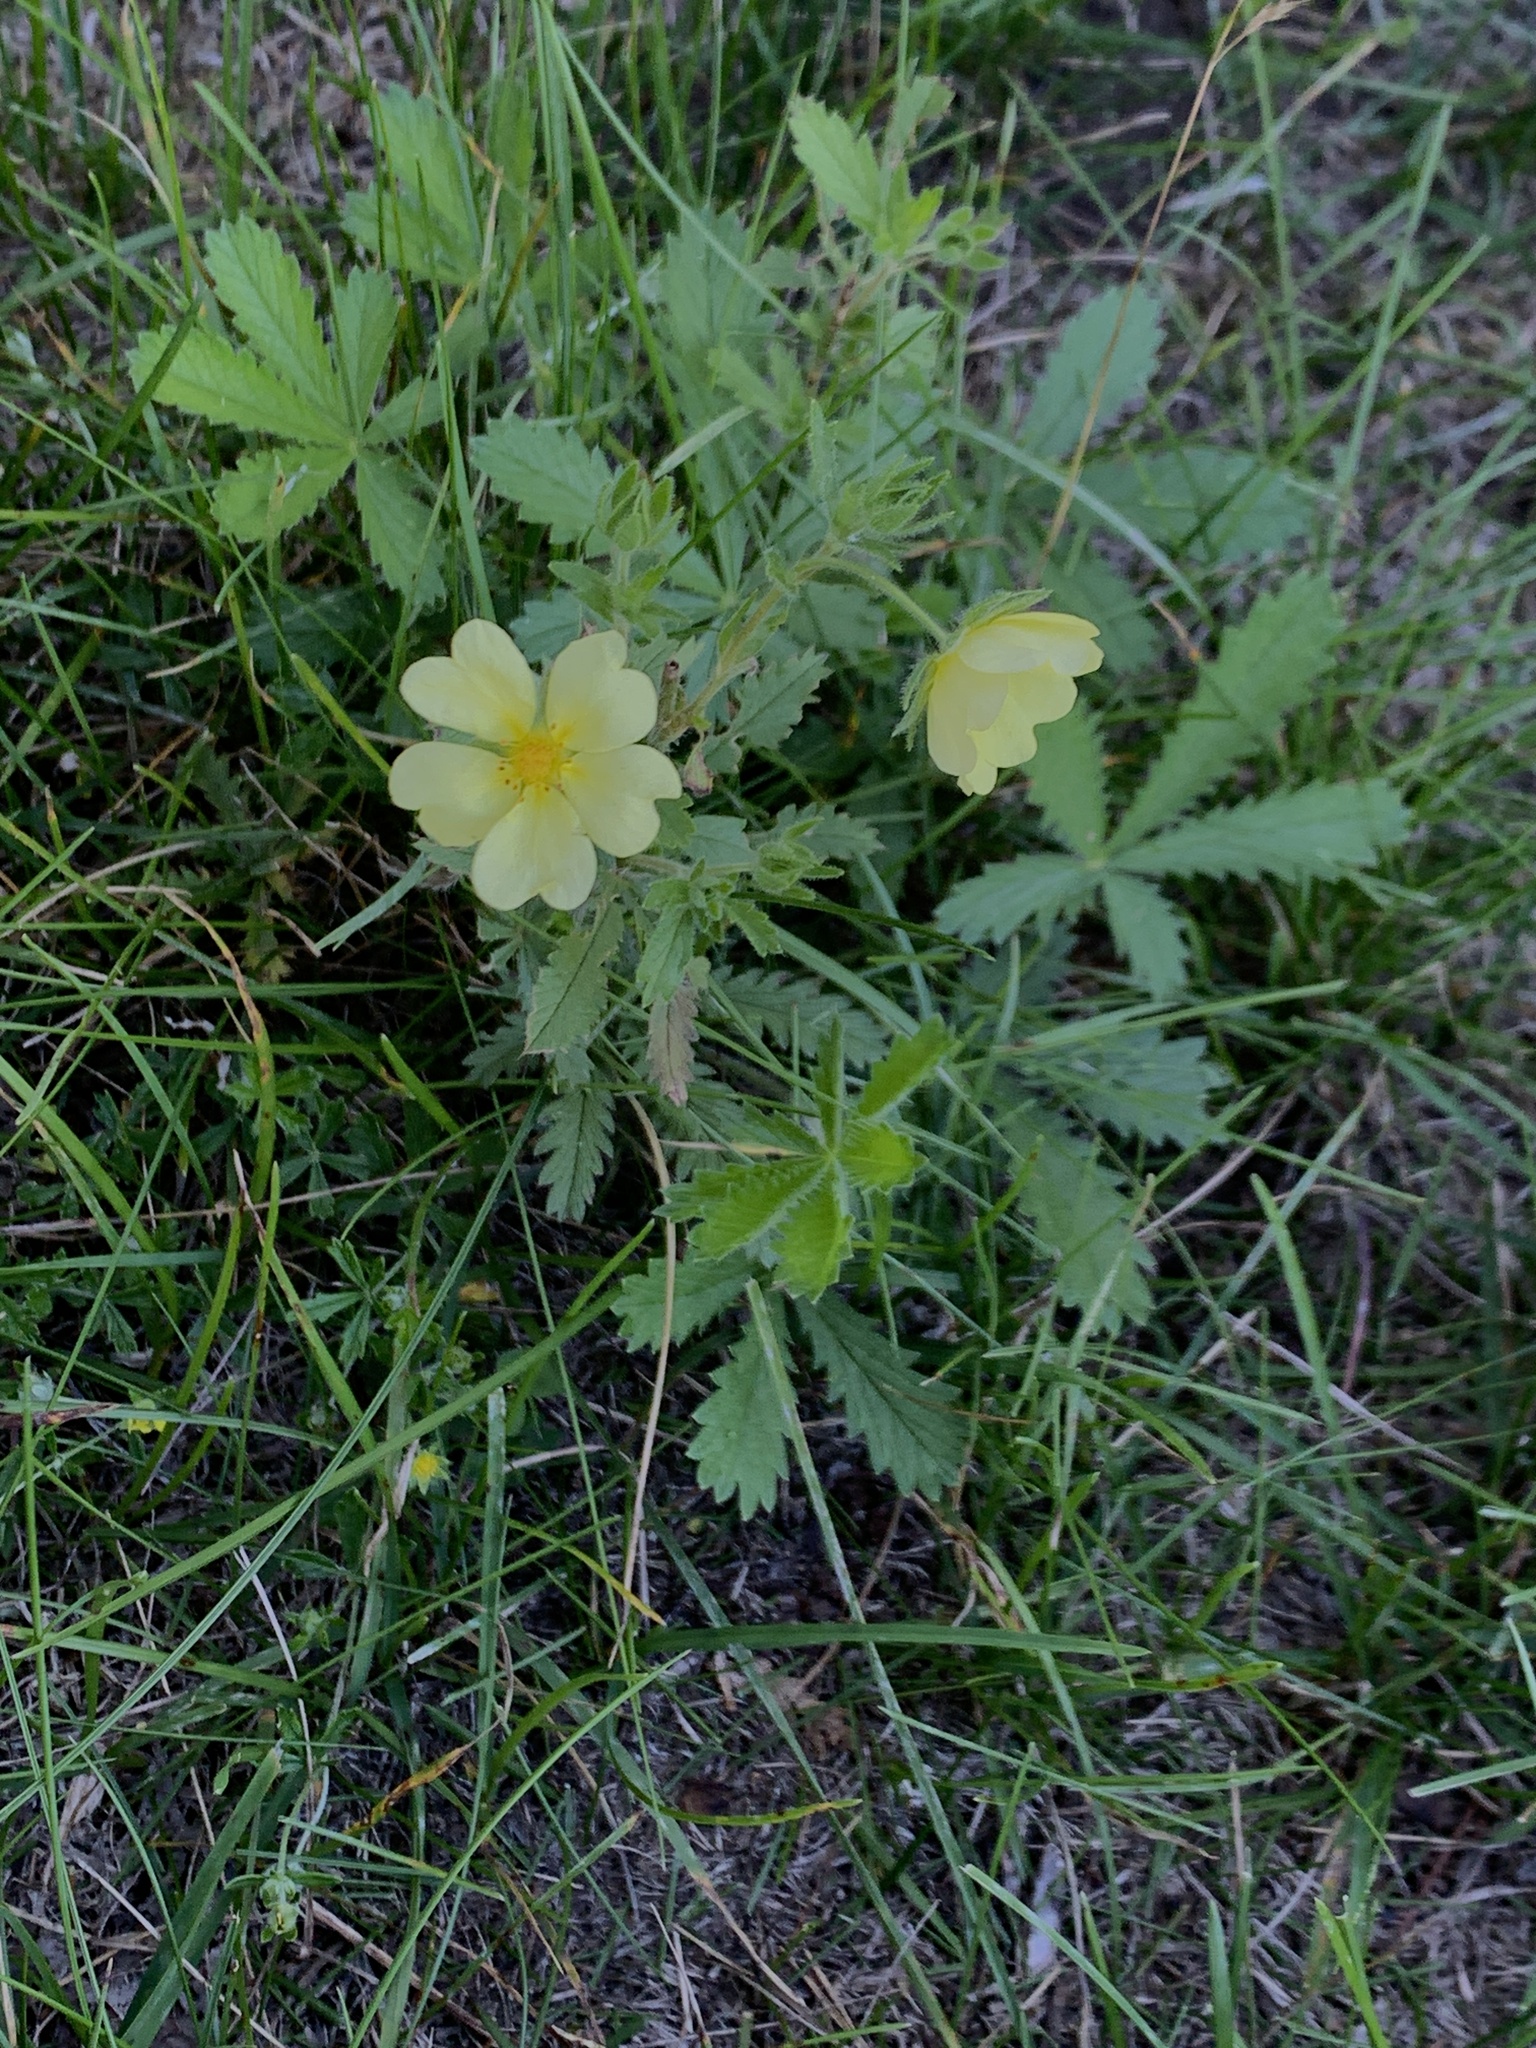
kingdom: Plantae
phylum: Tracheophyta
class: Magnoliopsida
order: Rosales
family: Rosaceae
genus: Potentilla
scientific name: Potentilla recta
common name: Sulphur cinquefoil
